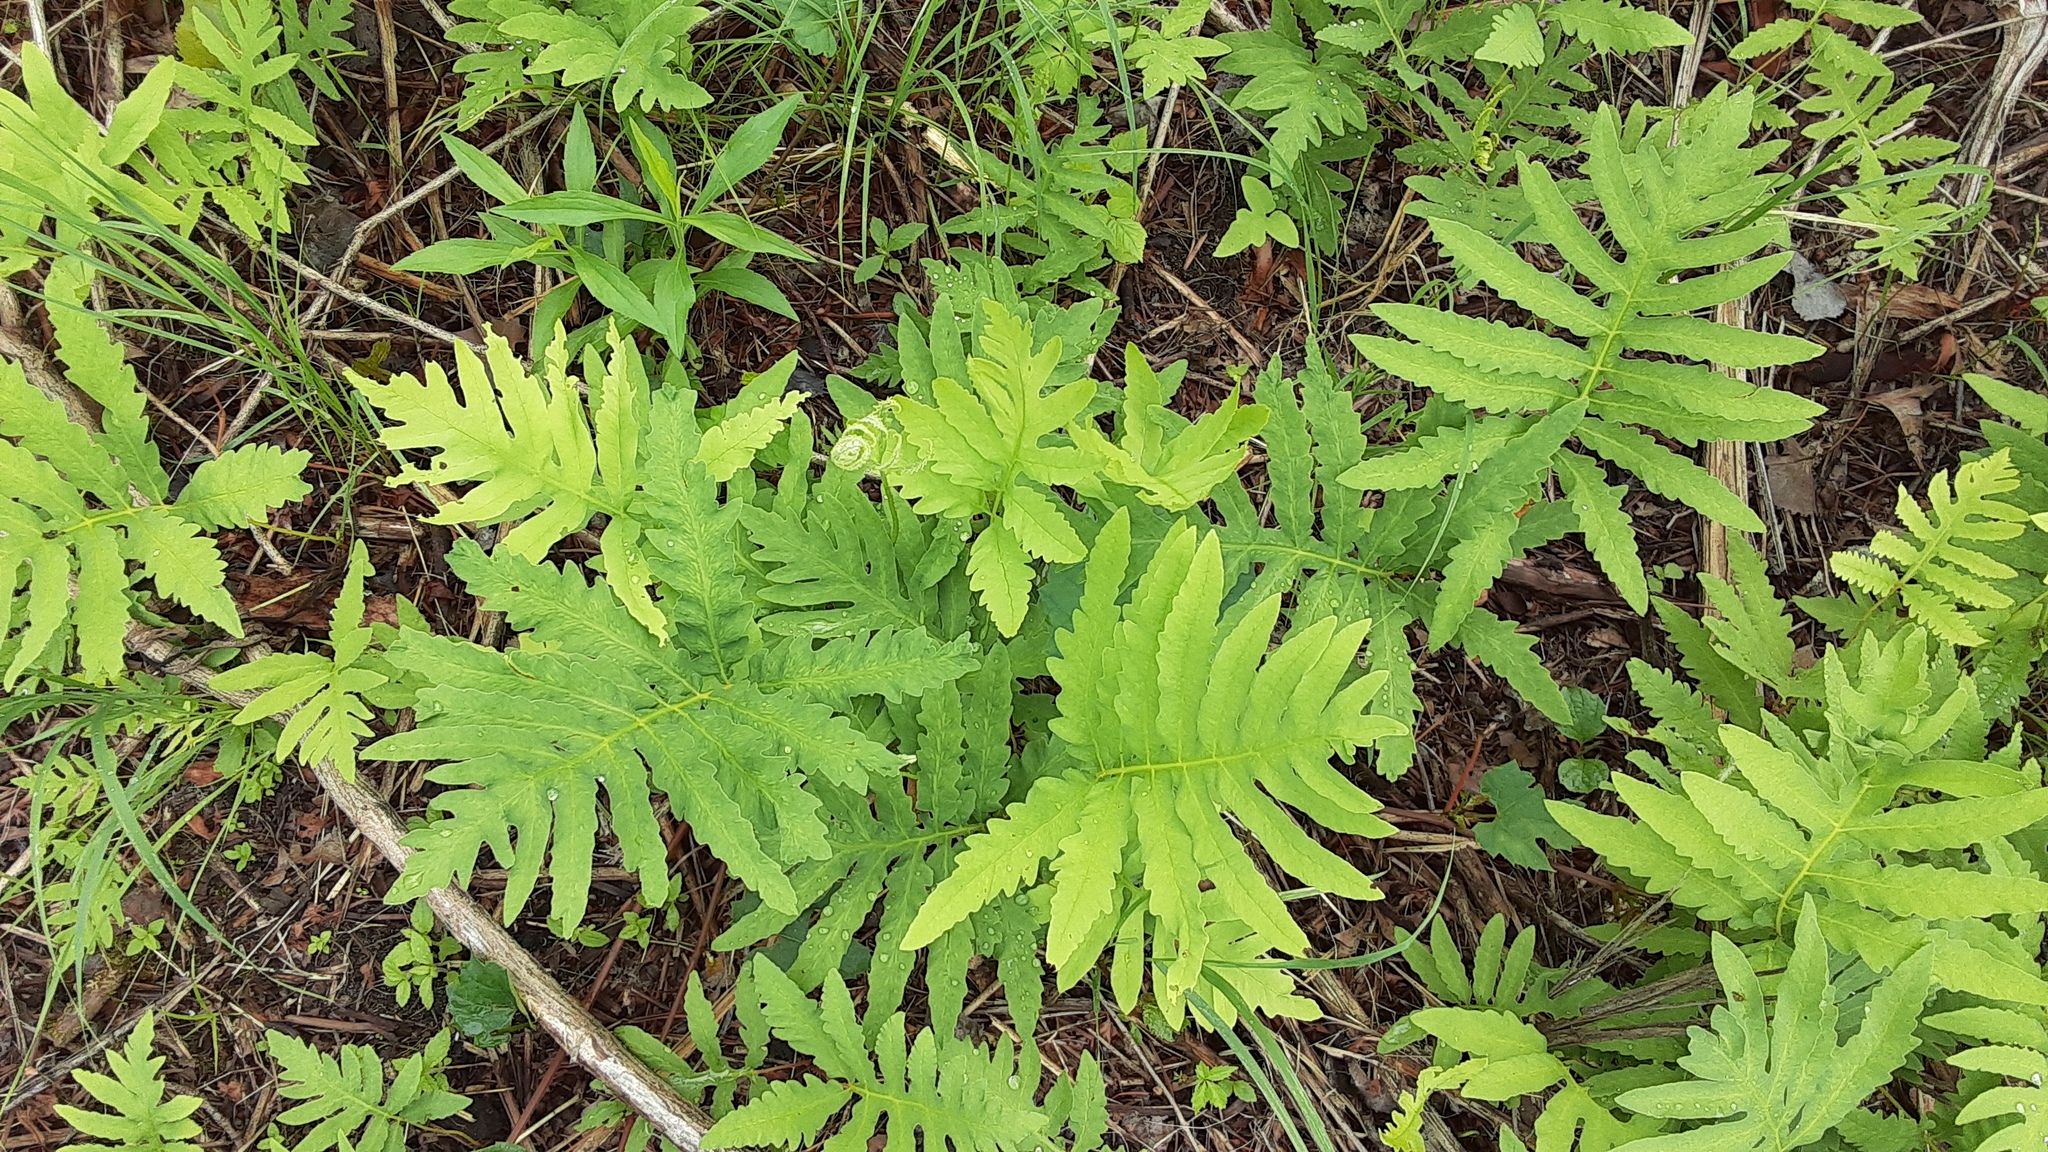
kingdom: Plantae
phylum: Tracheophyta
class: Polypodiopsida
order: Polypodiales
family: Onocleaceae
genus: Onoclea
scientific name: Onoclea sensibilis
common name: Sensitive fern
